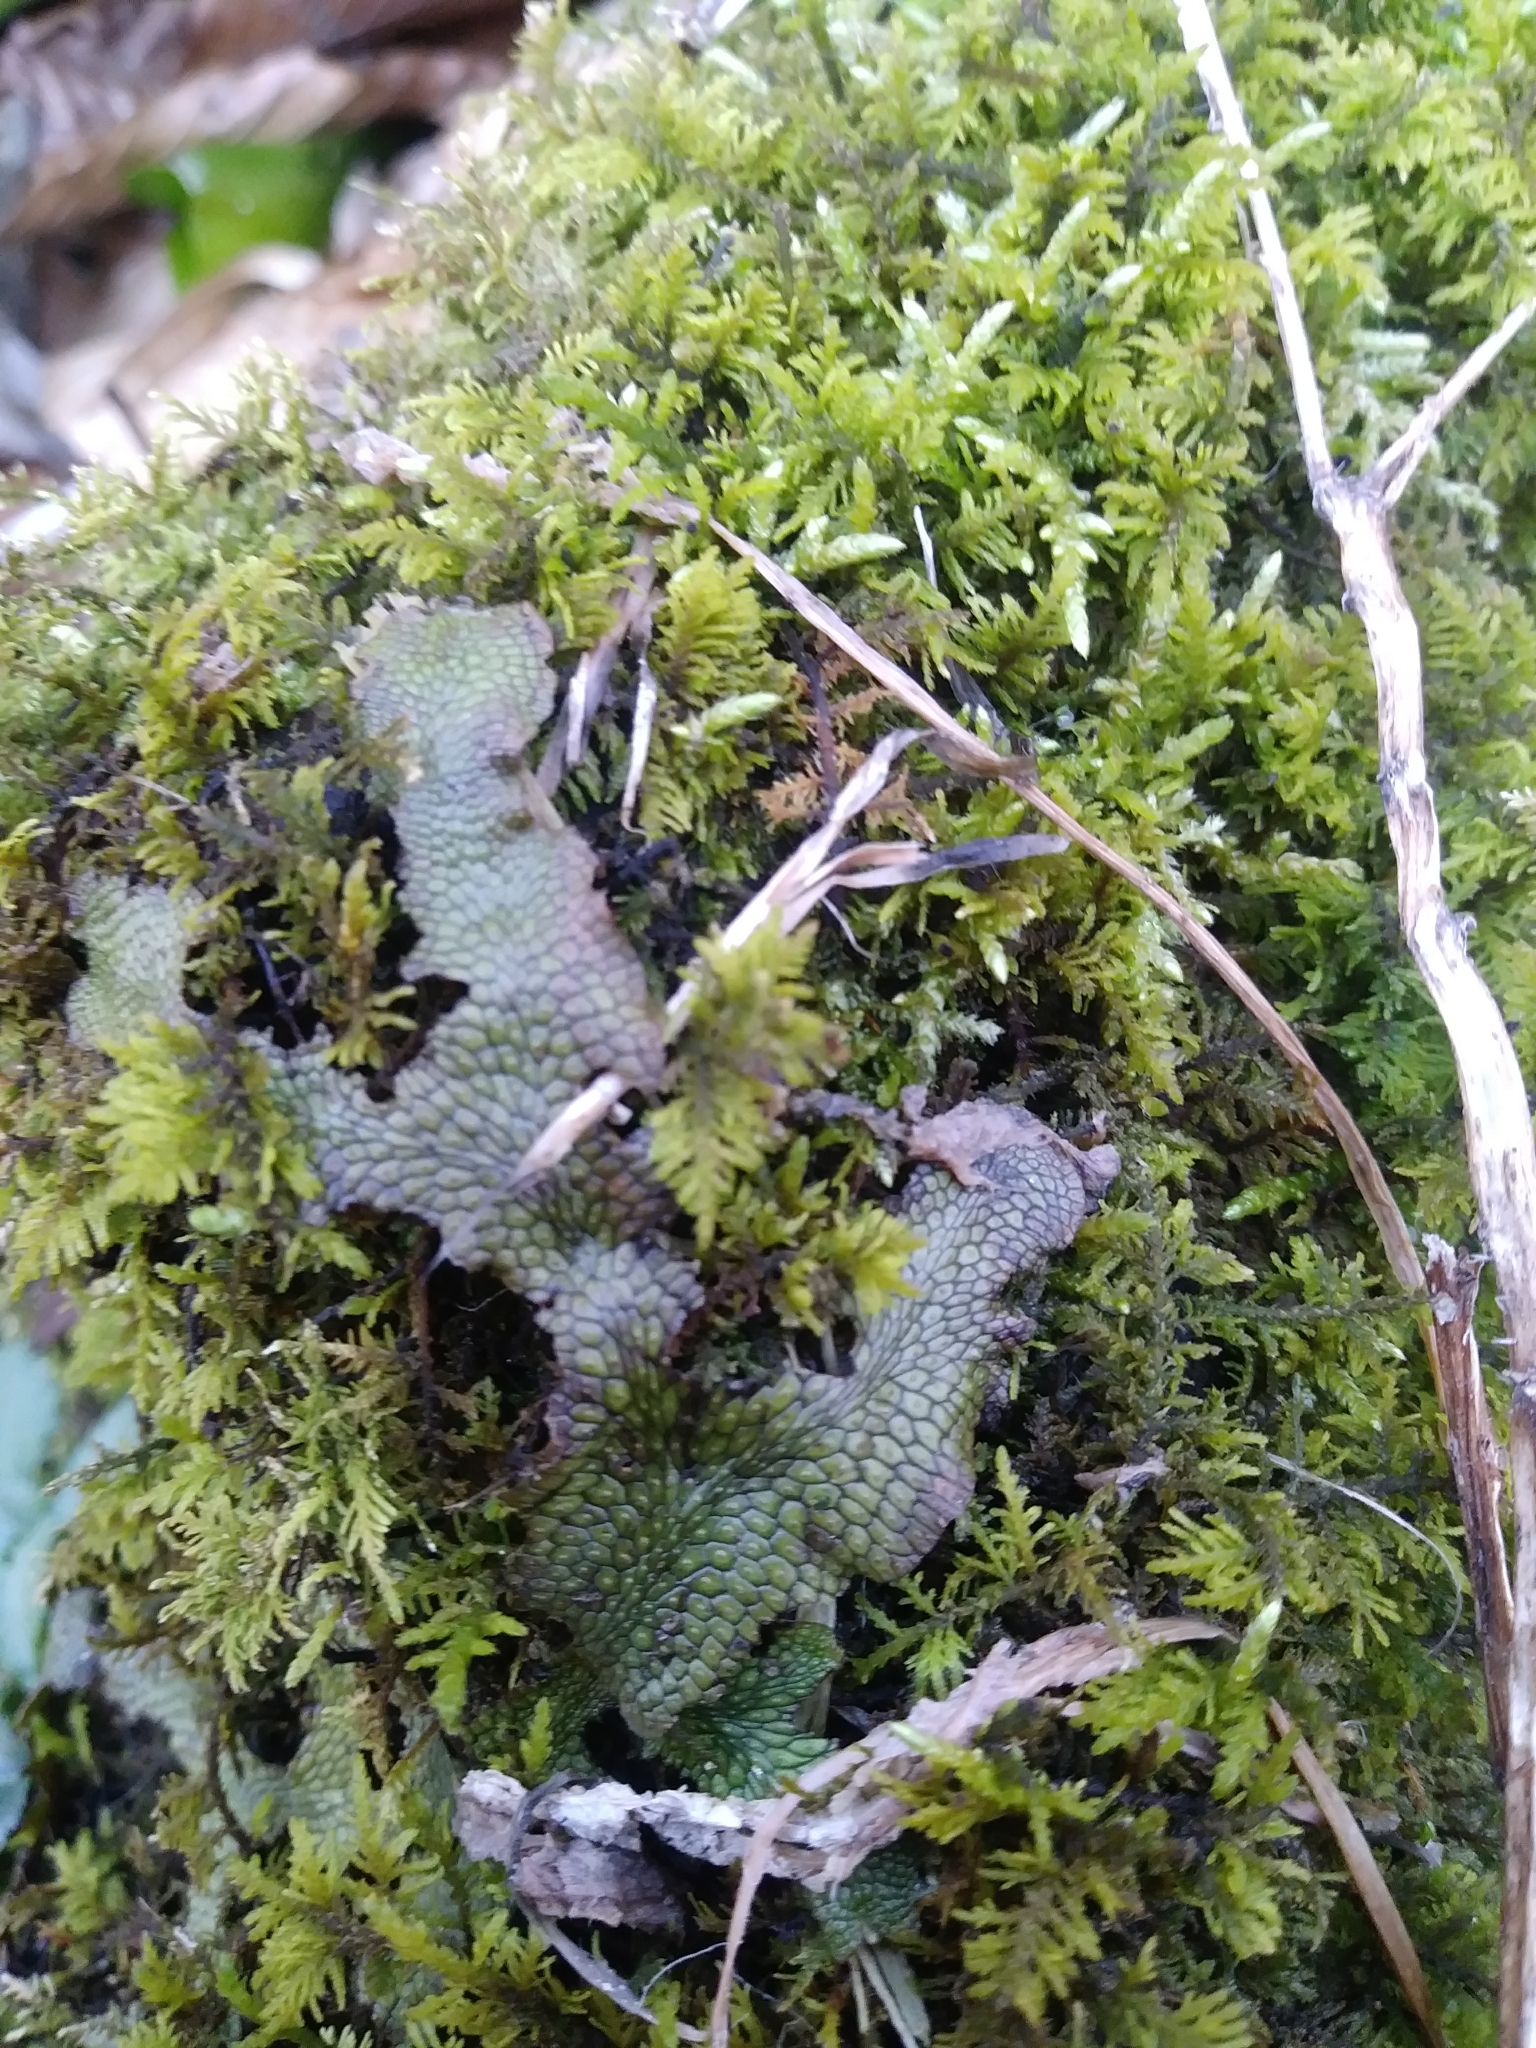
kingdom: Plantae
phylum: Marchantiophyta
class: Marchantiopsida
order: Marchantiales
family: Conocephalaceae
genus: Conocephalum
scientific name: Conocephalum salebrosum
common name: Cat-tongue liverwort
